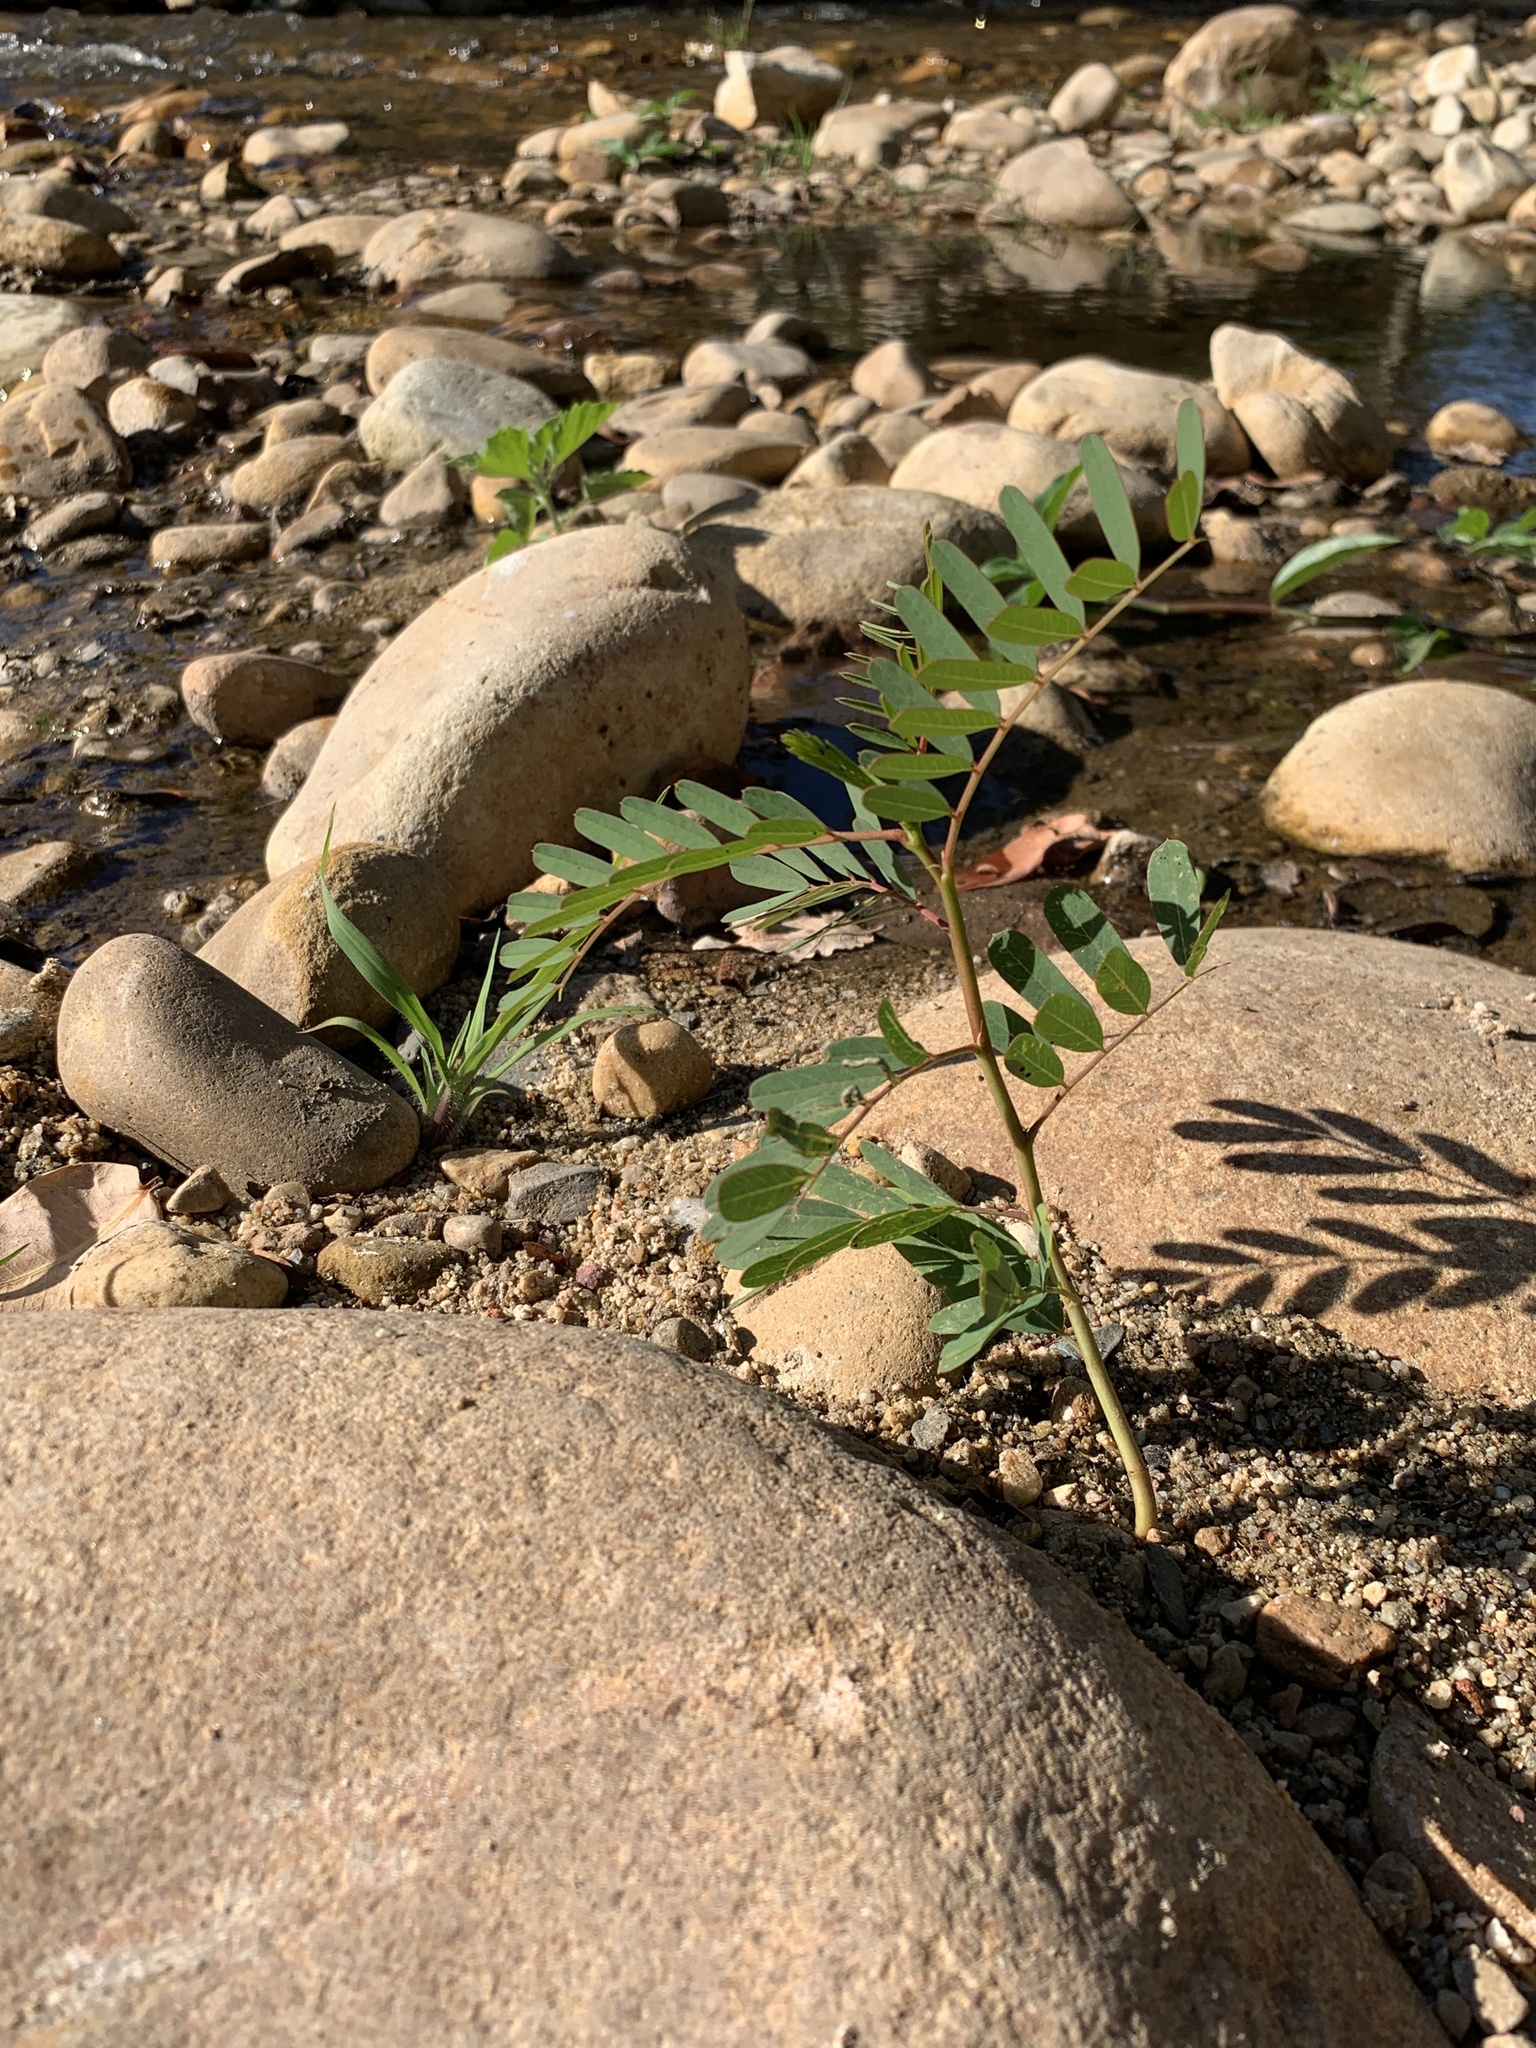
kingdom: Plantae
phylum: Tracheophyta
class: Magnoliopsida
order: Fabales
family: Fabaceae
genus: Sesbania
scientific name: Sesbania punicea
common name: Rattlebox
